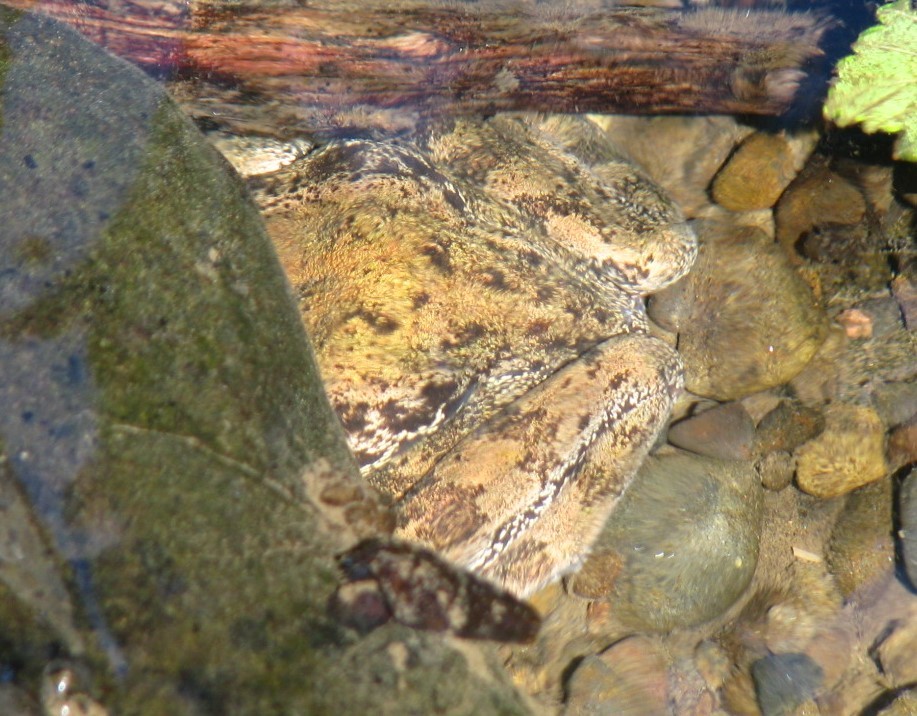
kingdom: Animalia
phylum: Chordata
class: Amphibia
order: Anura
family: Ranidae
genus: Rana
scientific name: Rana aurora
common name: Red-legged frog
